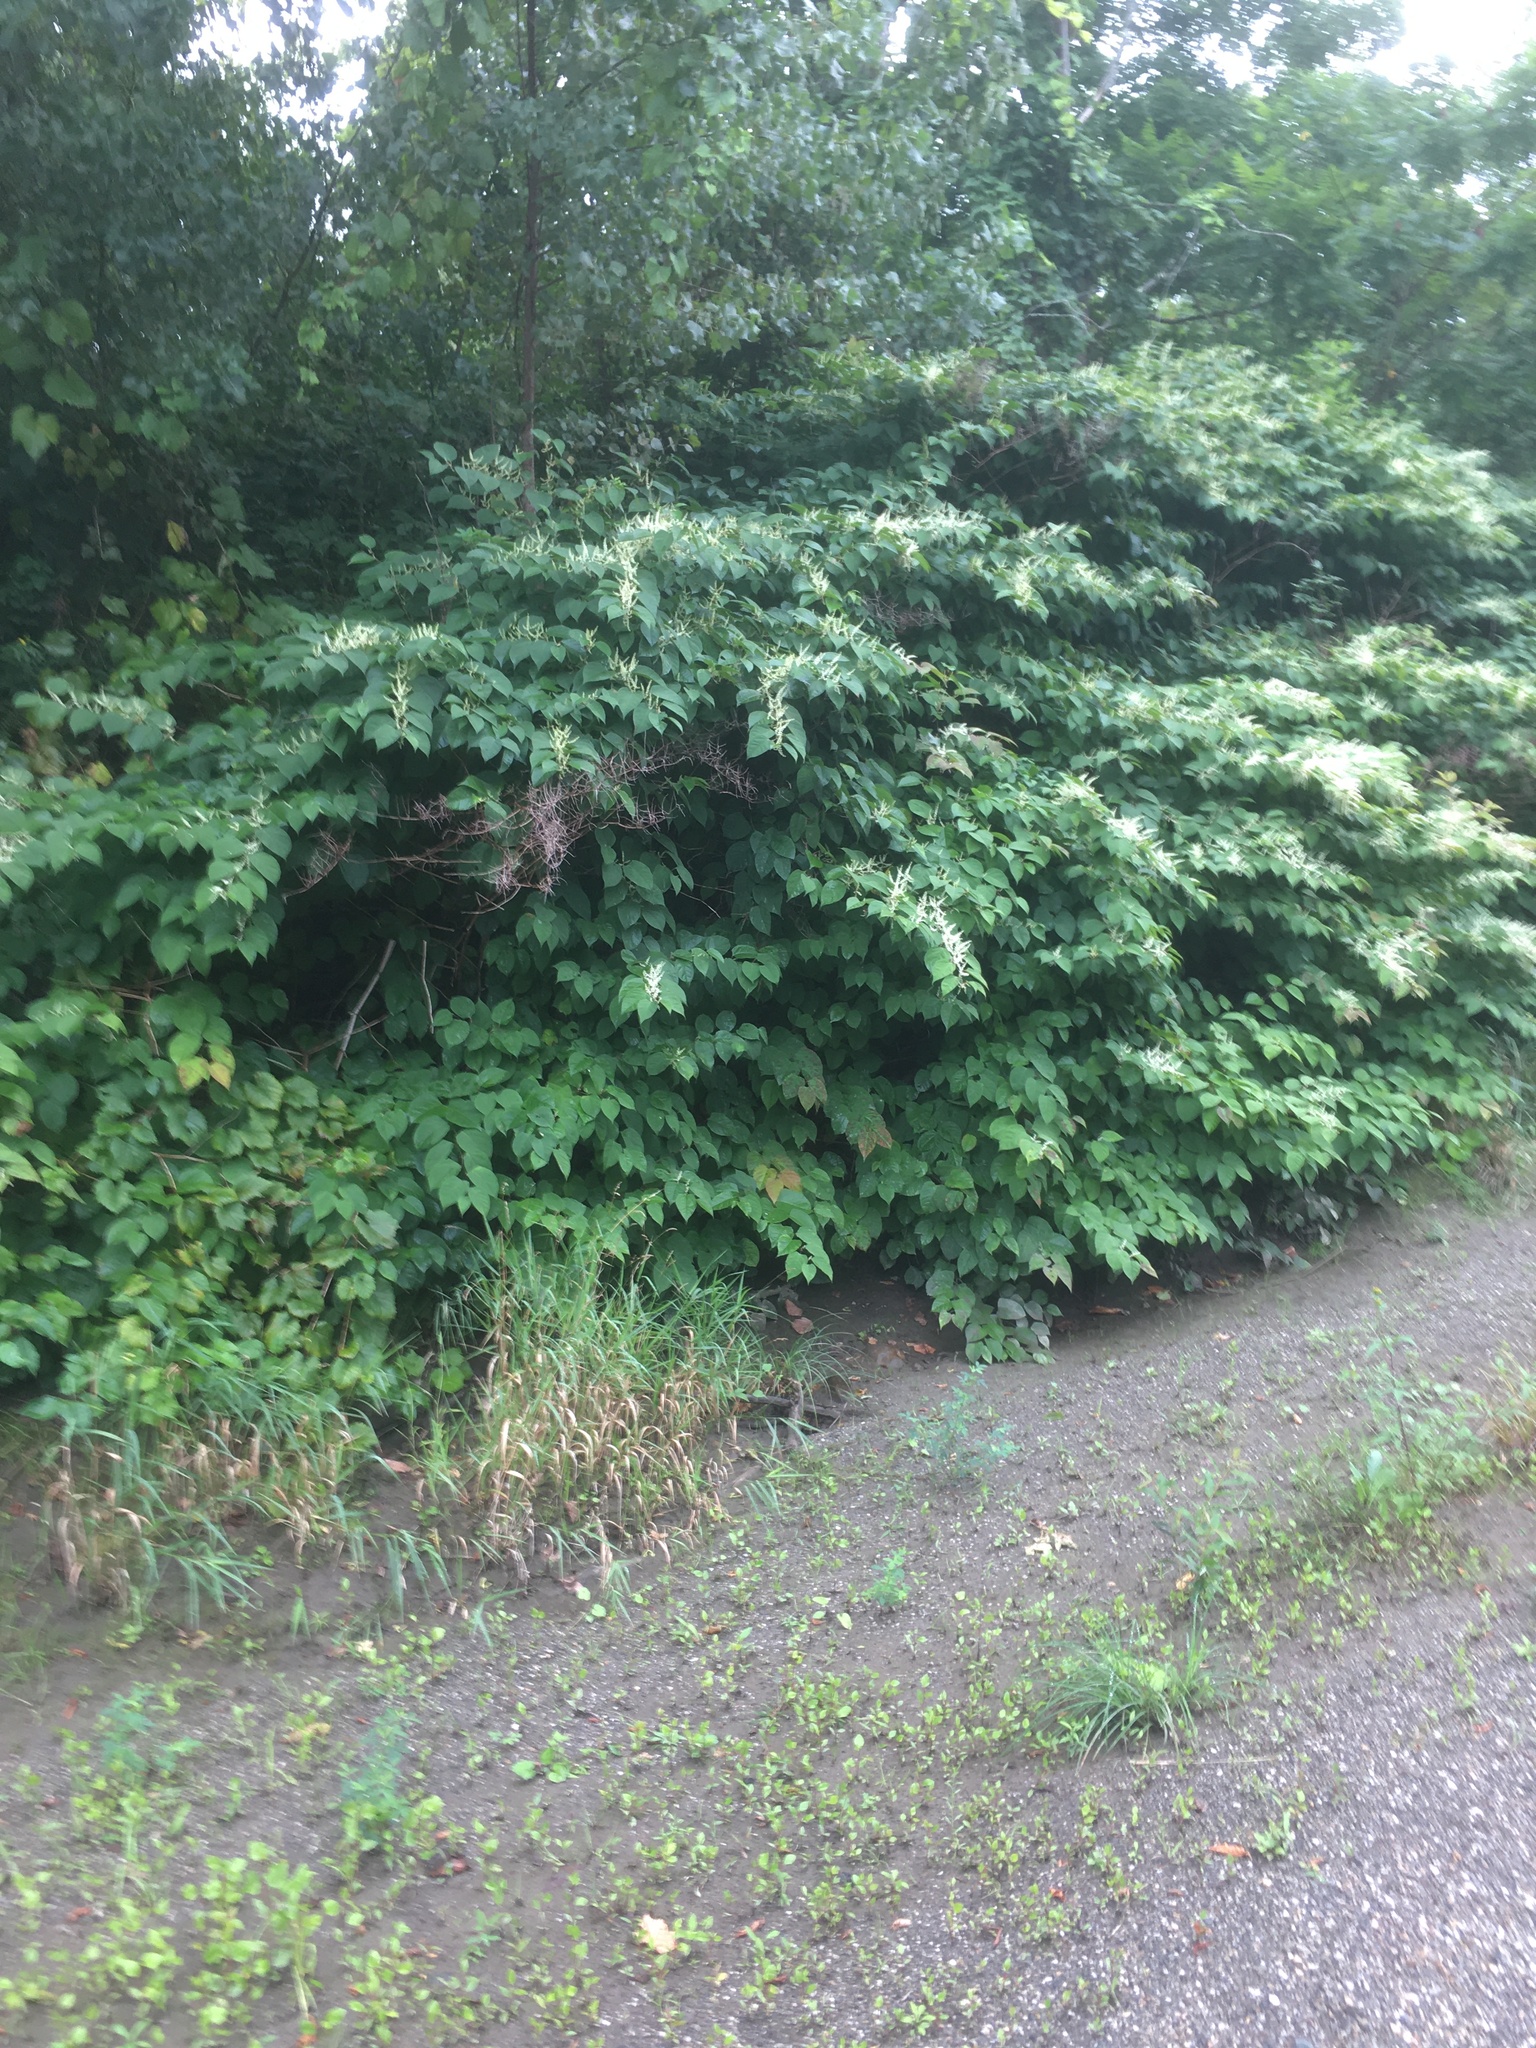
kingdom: Plantae
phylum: Tracheophyta
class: Magnoliopsida
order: Caryophyllales
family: Polygonaceae
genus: Reynoutria
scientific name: Reynoutria japonica
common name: Japanese knotweed
